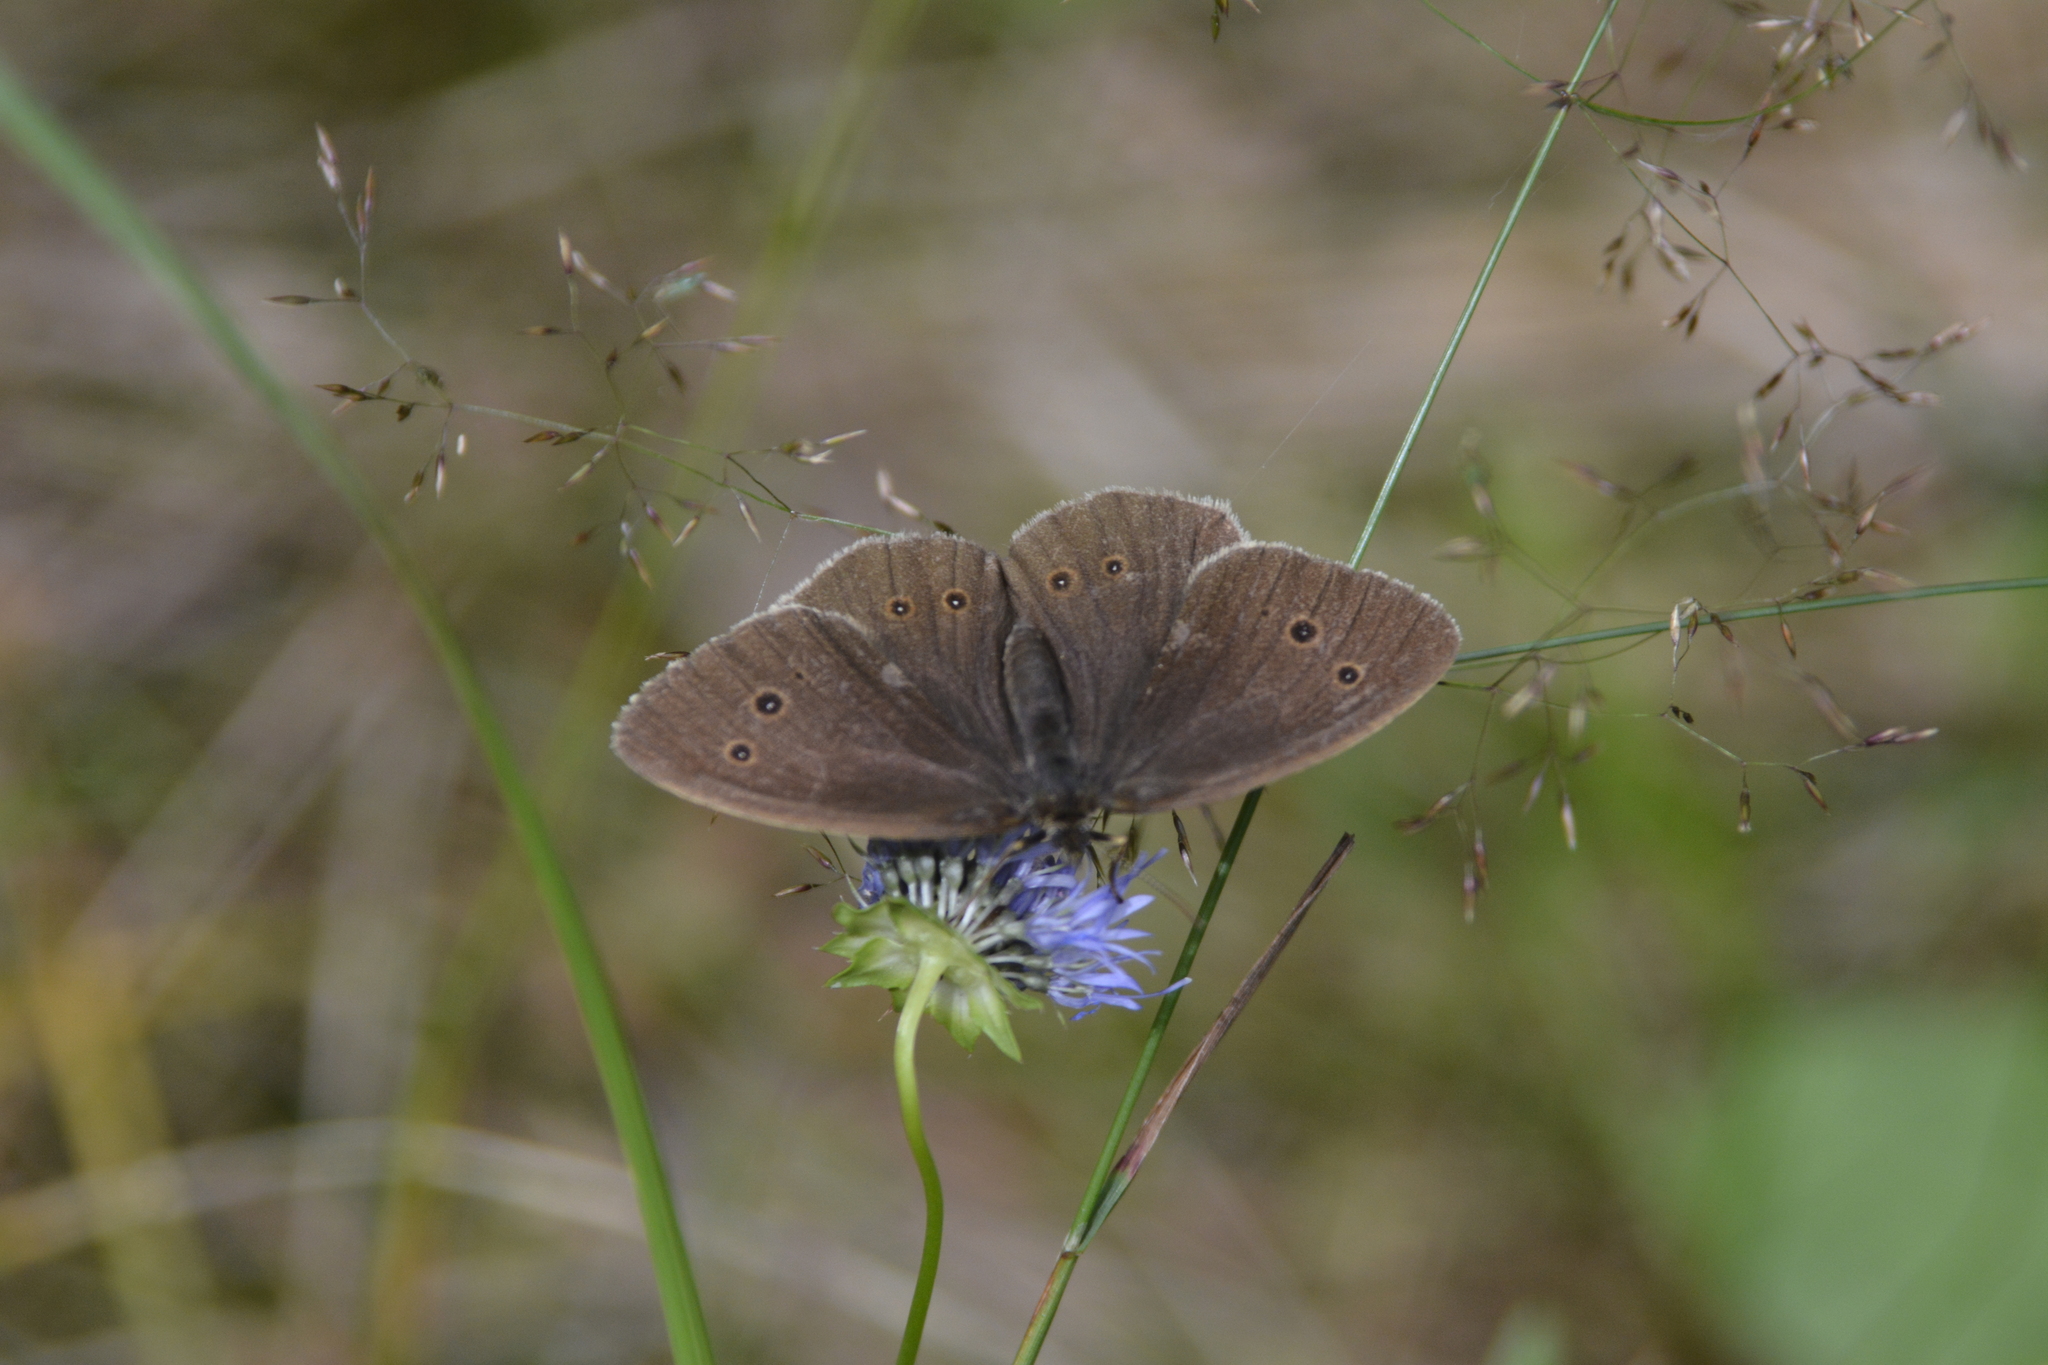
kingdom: Animalia
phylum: Arthropoda
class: Insecta
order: Lepidoptera
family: Nymphalidae
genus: Aphantopus
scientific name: Aphantopus hyperantus
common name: Ringlet
